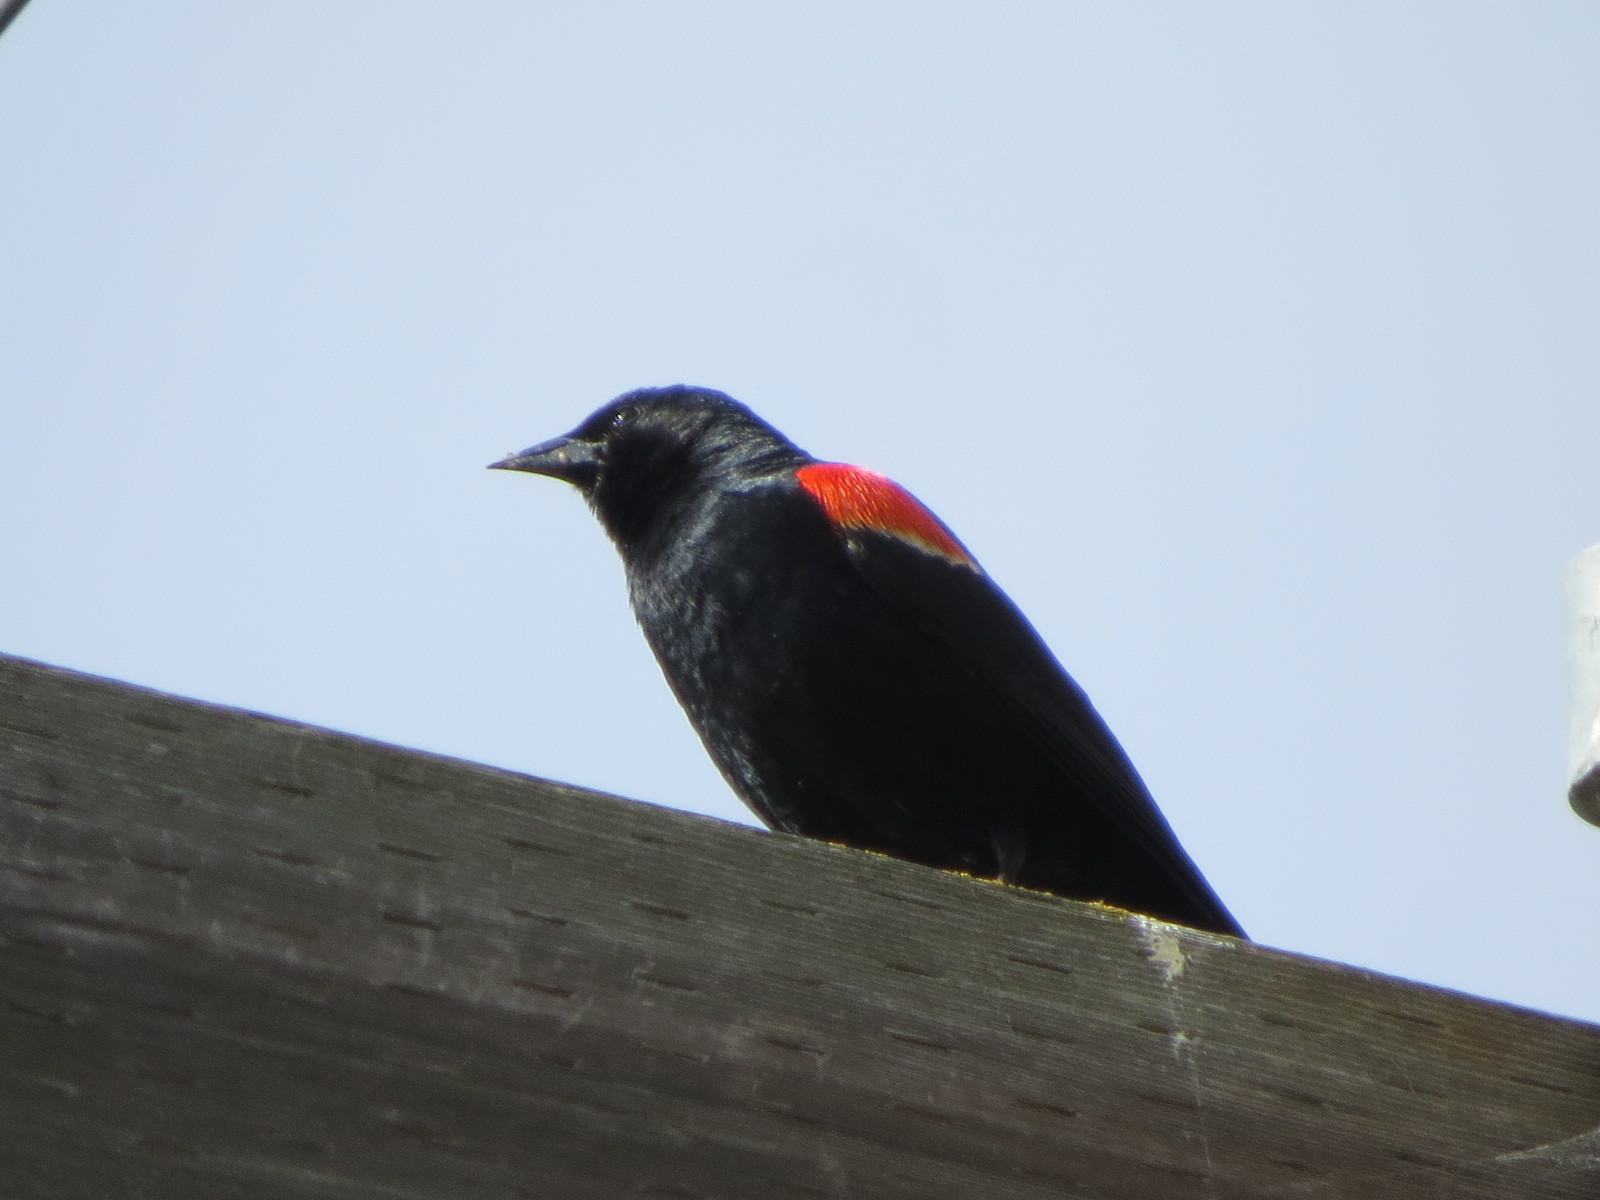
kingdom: Animalia
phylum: Chordata
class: Aves
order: Passeriformes
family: Icteridae
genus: Agelaius
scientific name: Agelaius phoeniceus
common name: Red-winged blackbird
